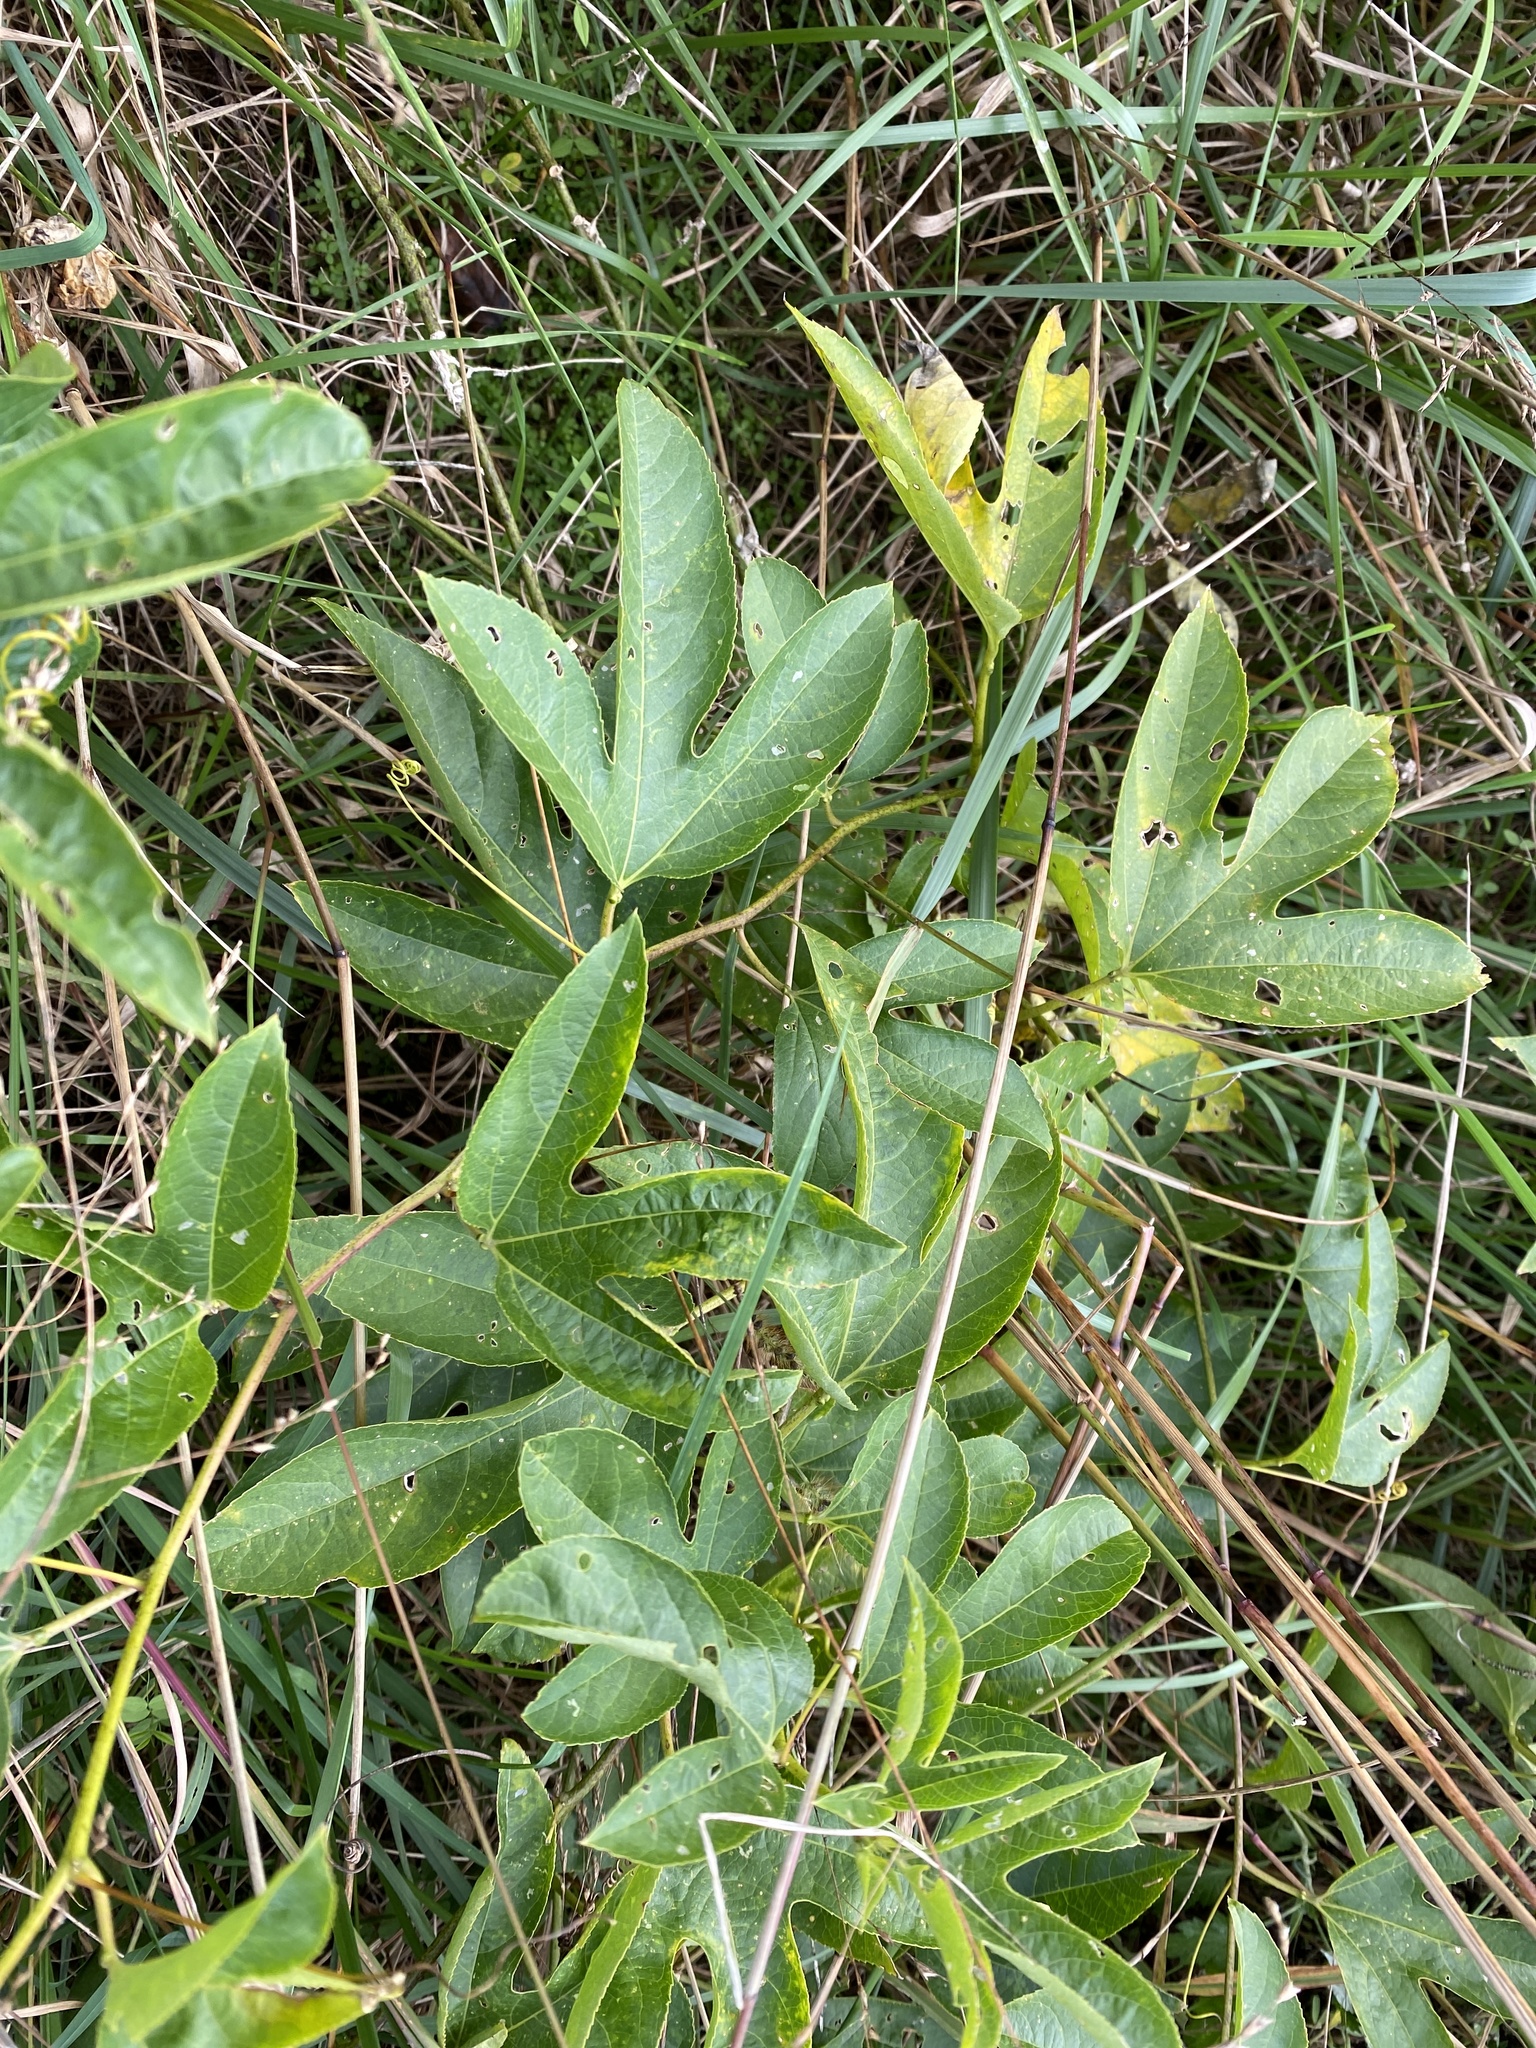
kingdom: Plantae
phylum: Tracheophyta
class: Magnoliopsida
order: Malpighiales
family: Passifloraceae
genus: Passiflora
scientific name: Passiflora incarnata
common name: Apricot-vine
